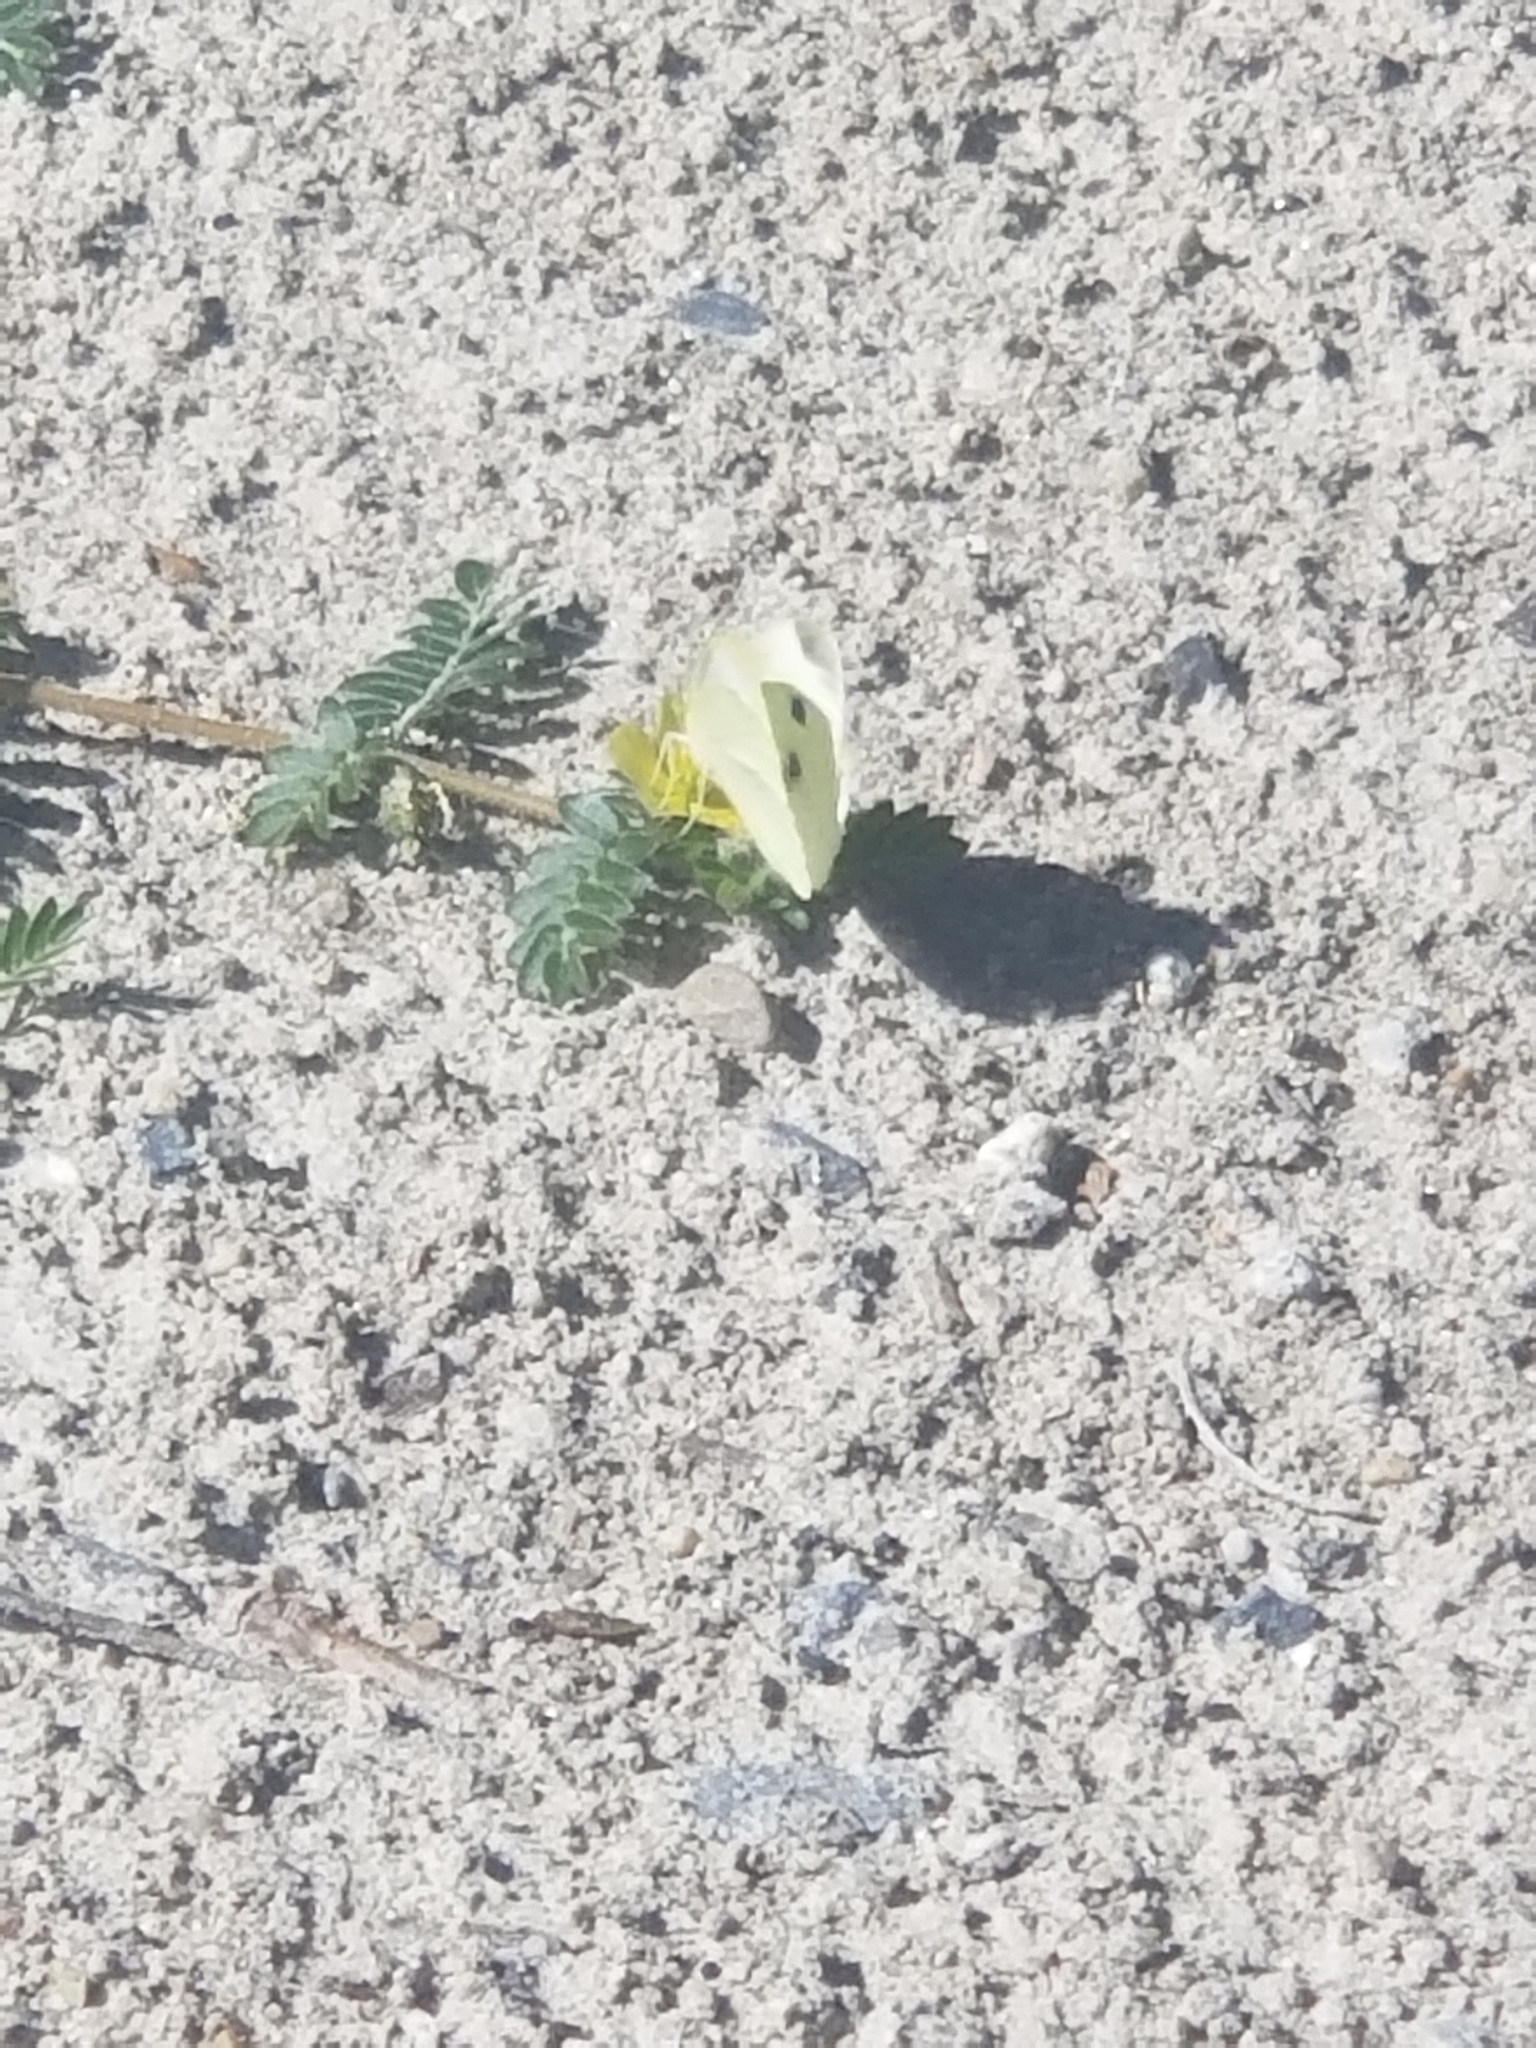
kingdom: Animalia
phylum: Arthropoda
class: Insecta
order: Lepidoptera
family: Pieridae
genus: Pieris
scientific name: Pieris rapae
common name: Small white
